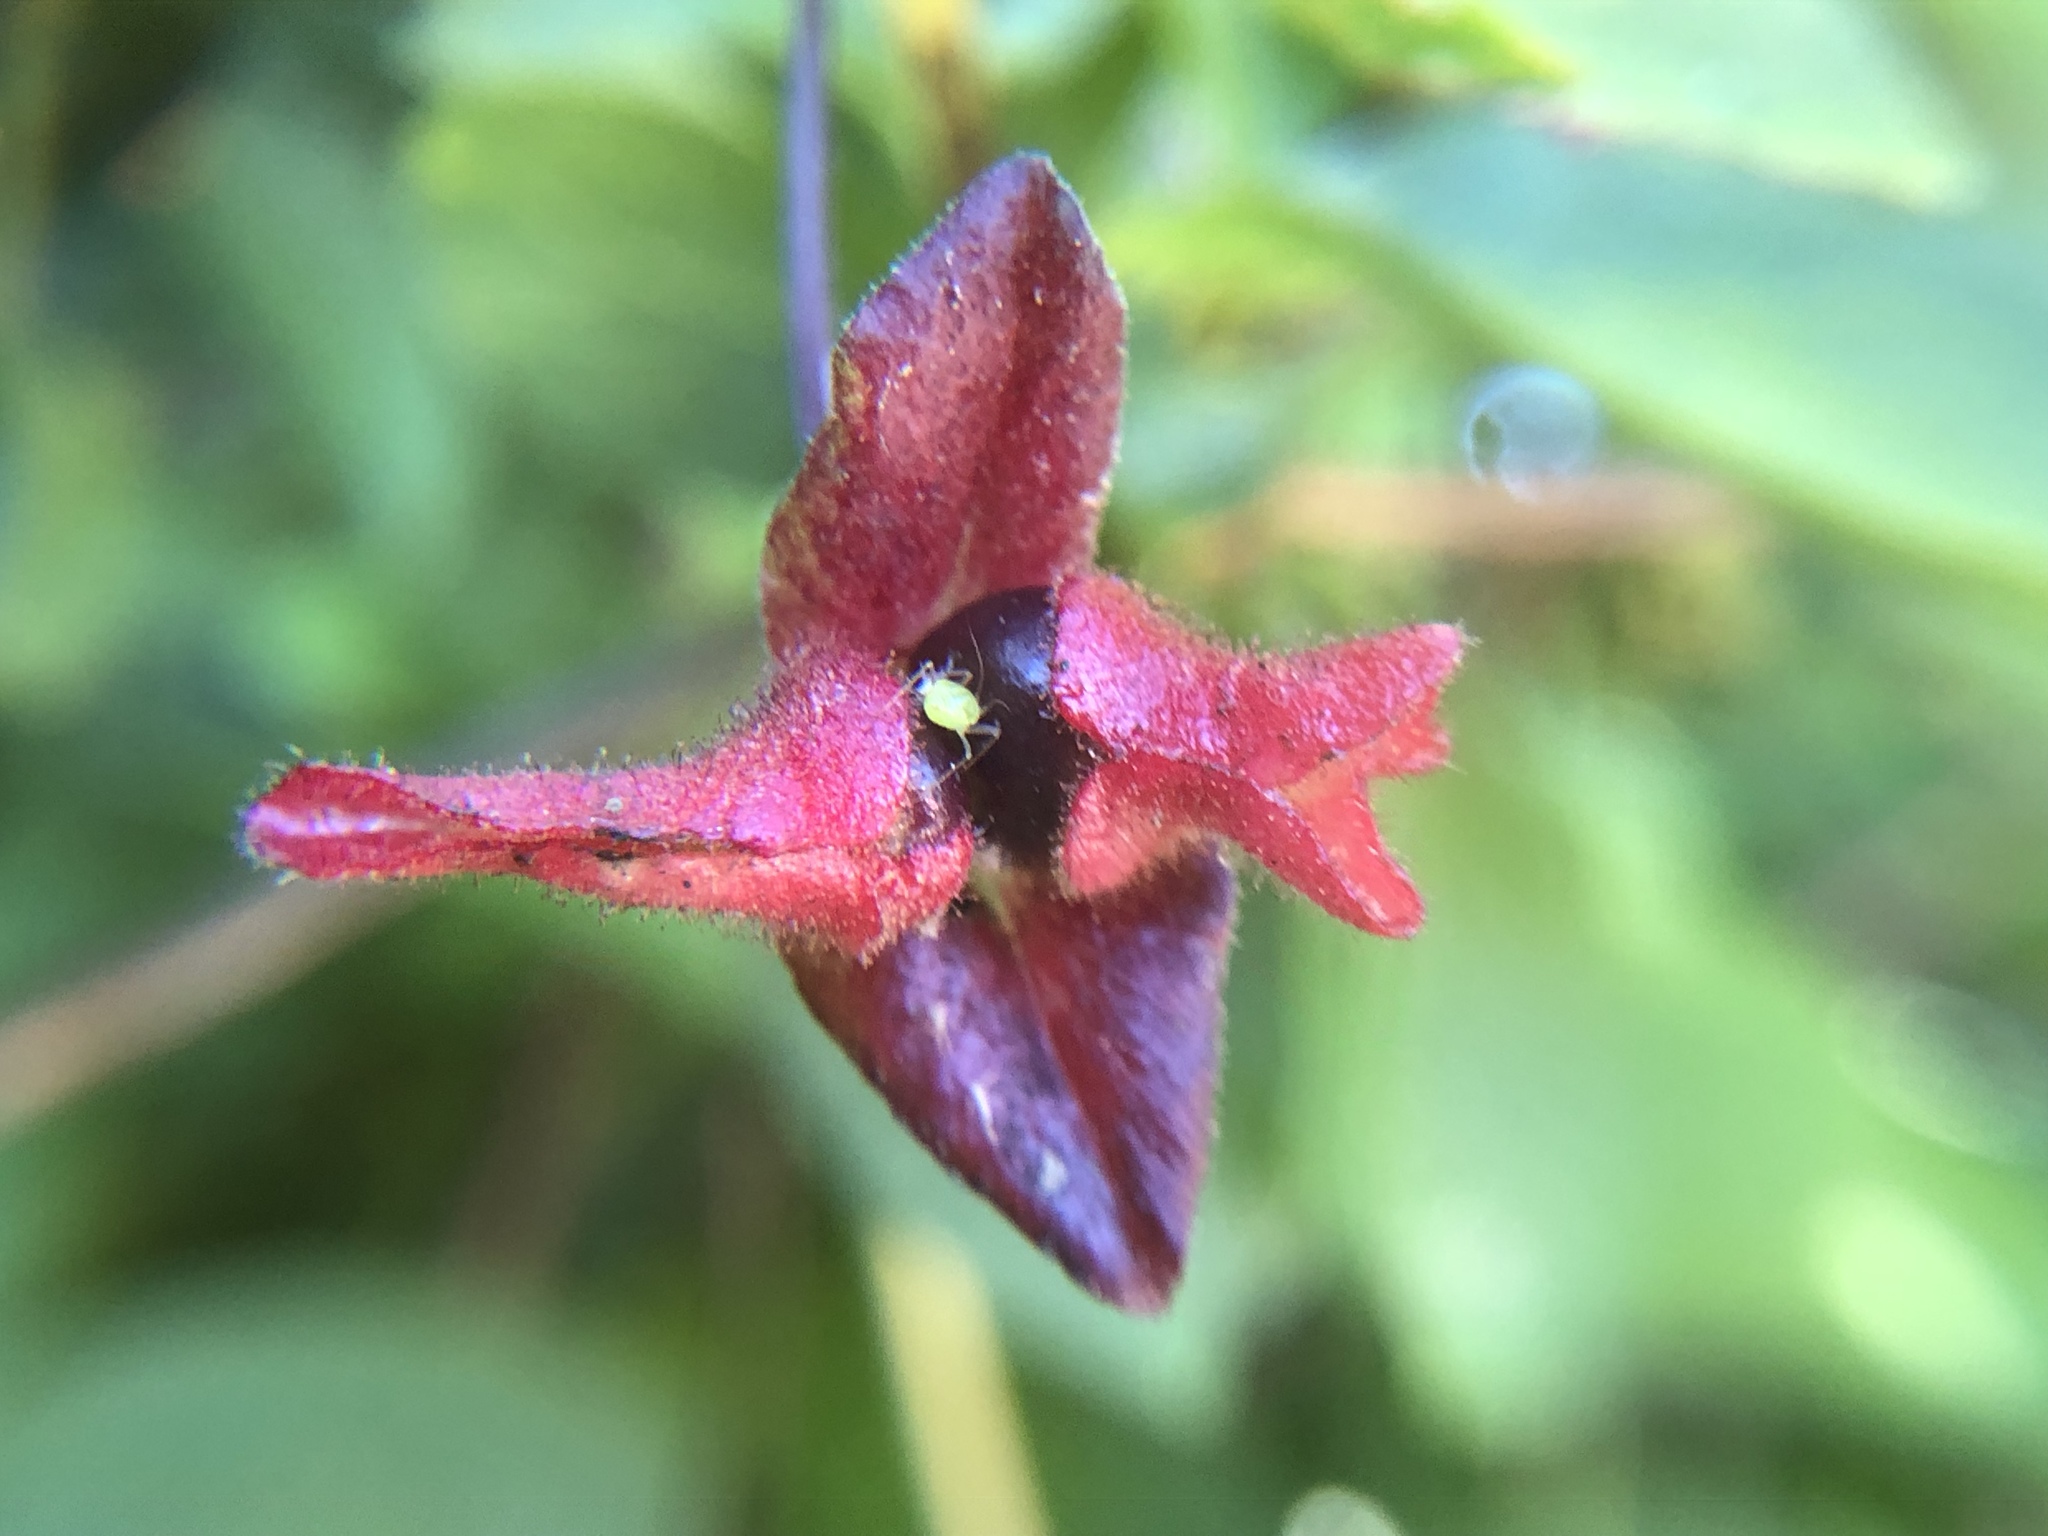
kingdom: Plantae
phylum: Tracheophyta
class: Magnoliopsida
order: Dipsacales
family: Caprifoliaceae
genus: Lonicera
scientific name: Lonicera involucrata
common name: Californian honeysuckle
